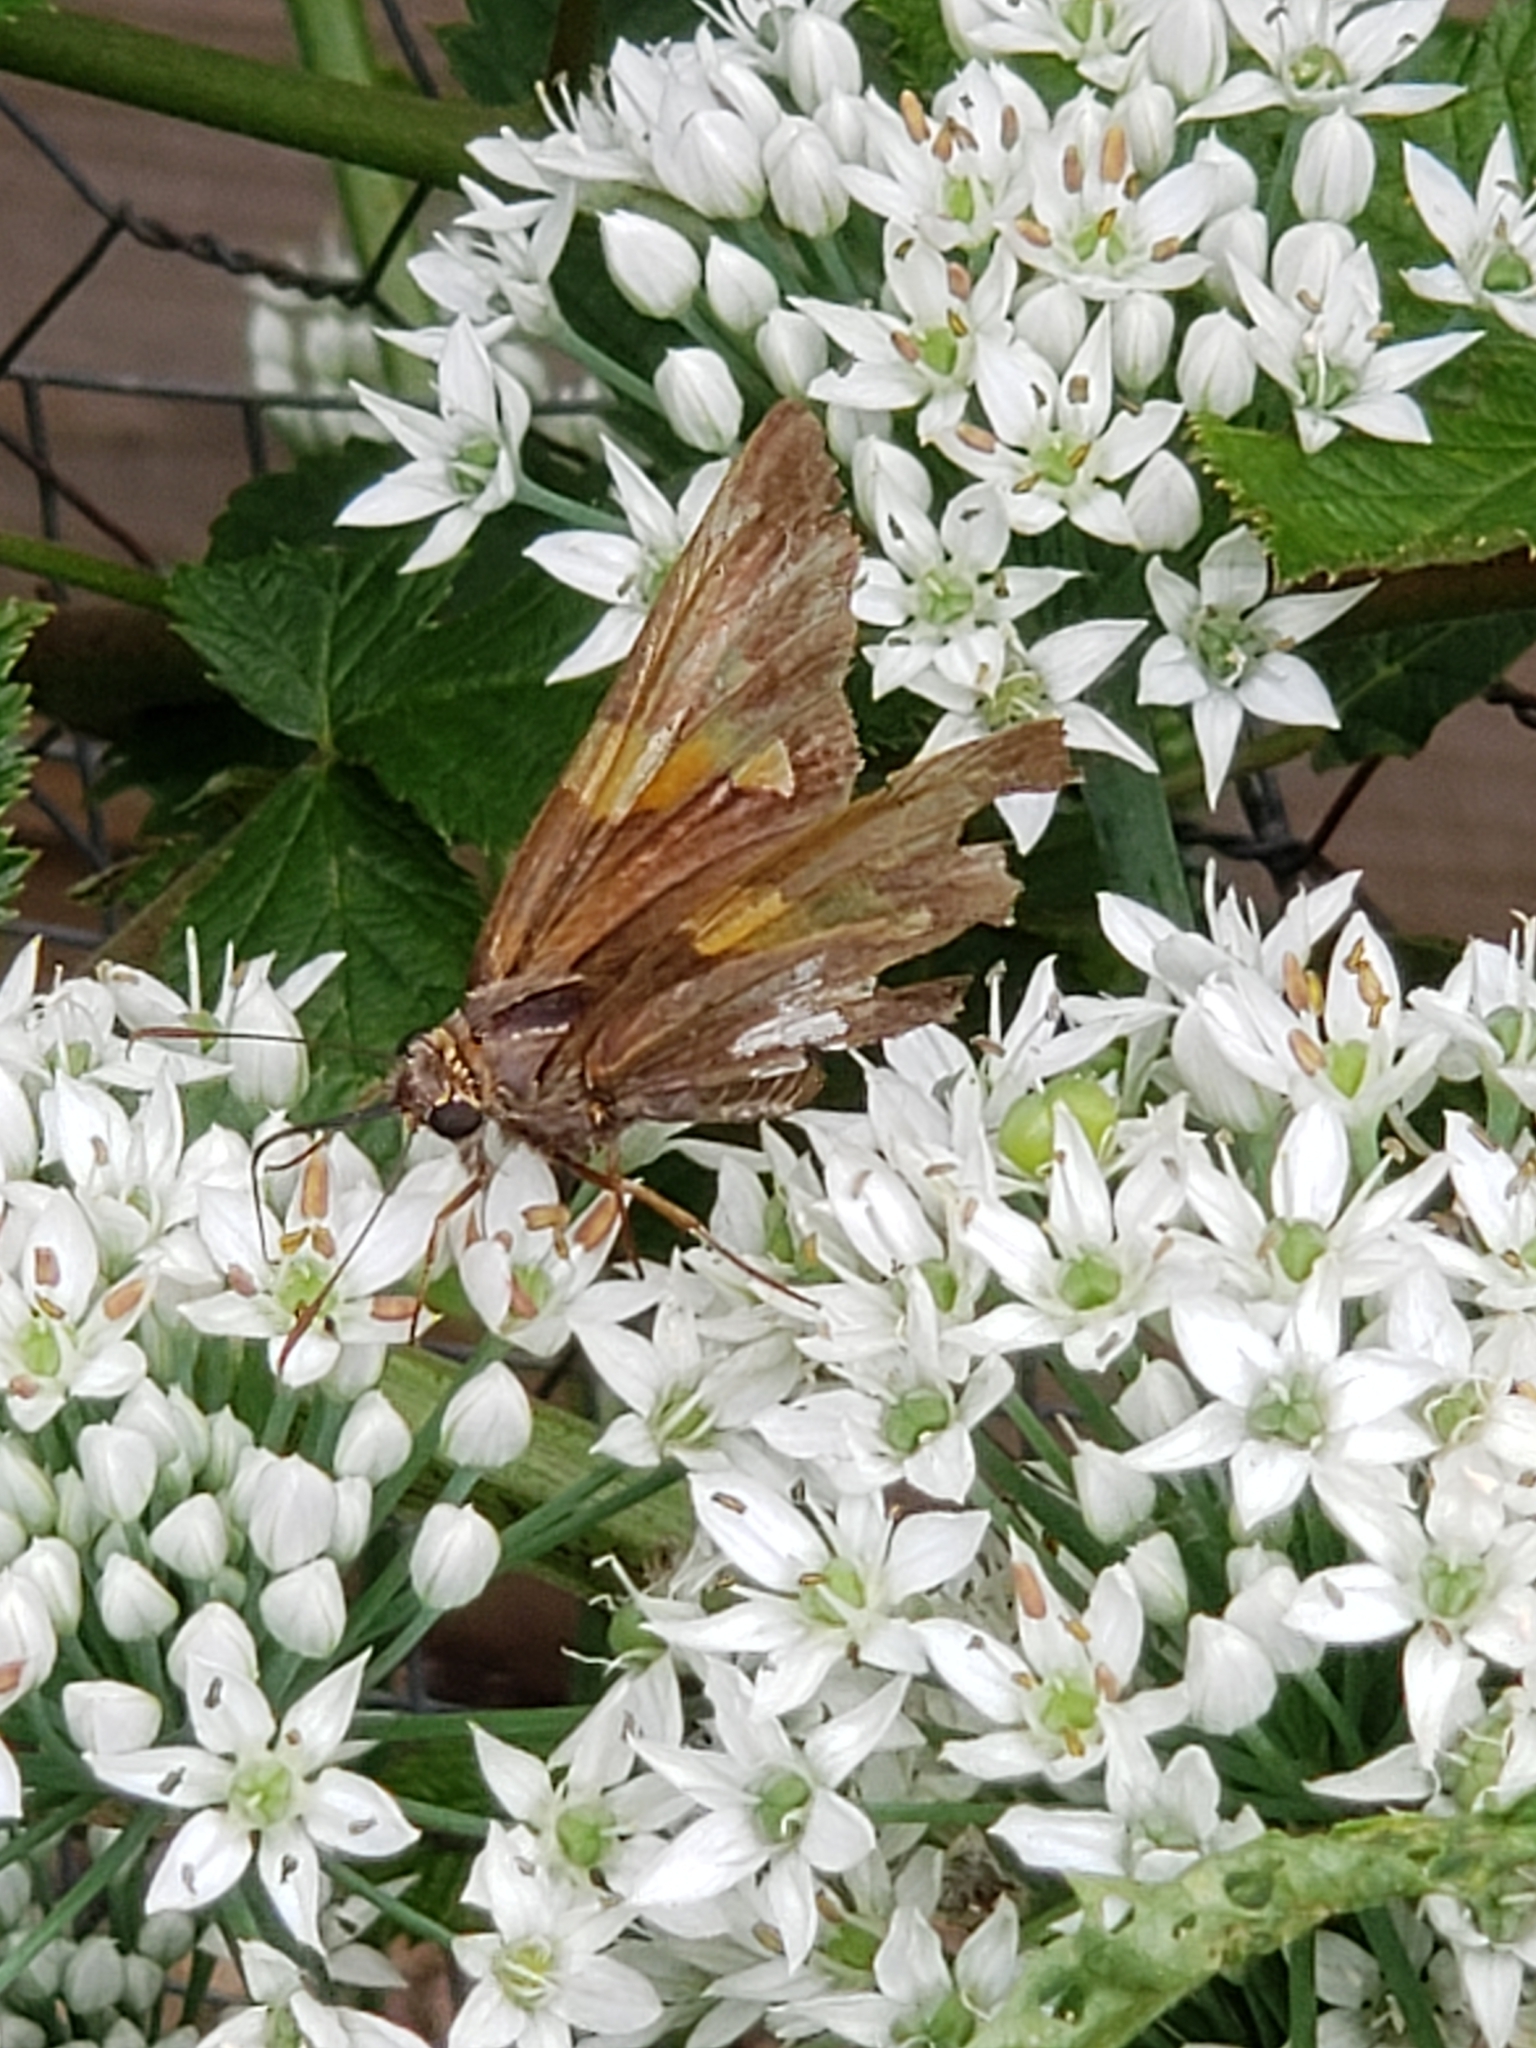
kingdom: Animalia
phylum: Arthropoda
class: Insecta
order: Lepidoptera
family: Hesperiidae
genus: Epargyreus
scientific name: Epargyreus clarus
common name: Silver-spotted skipper
